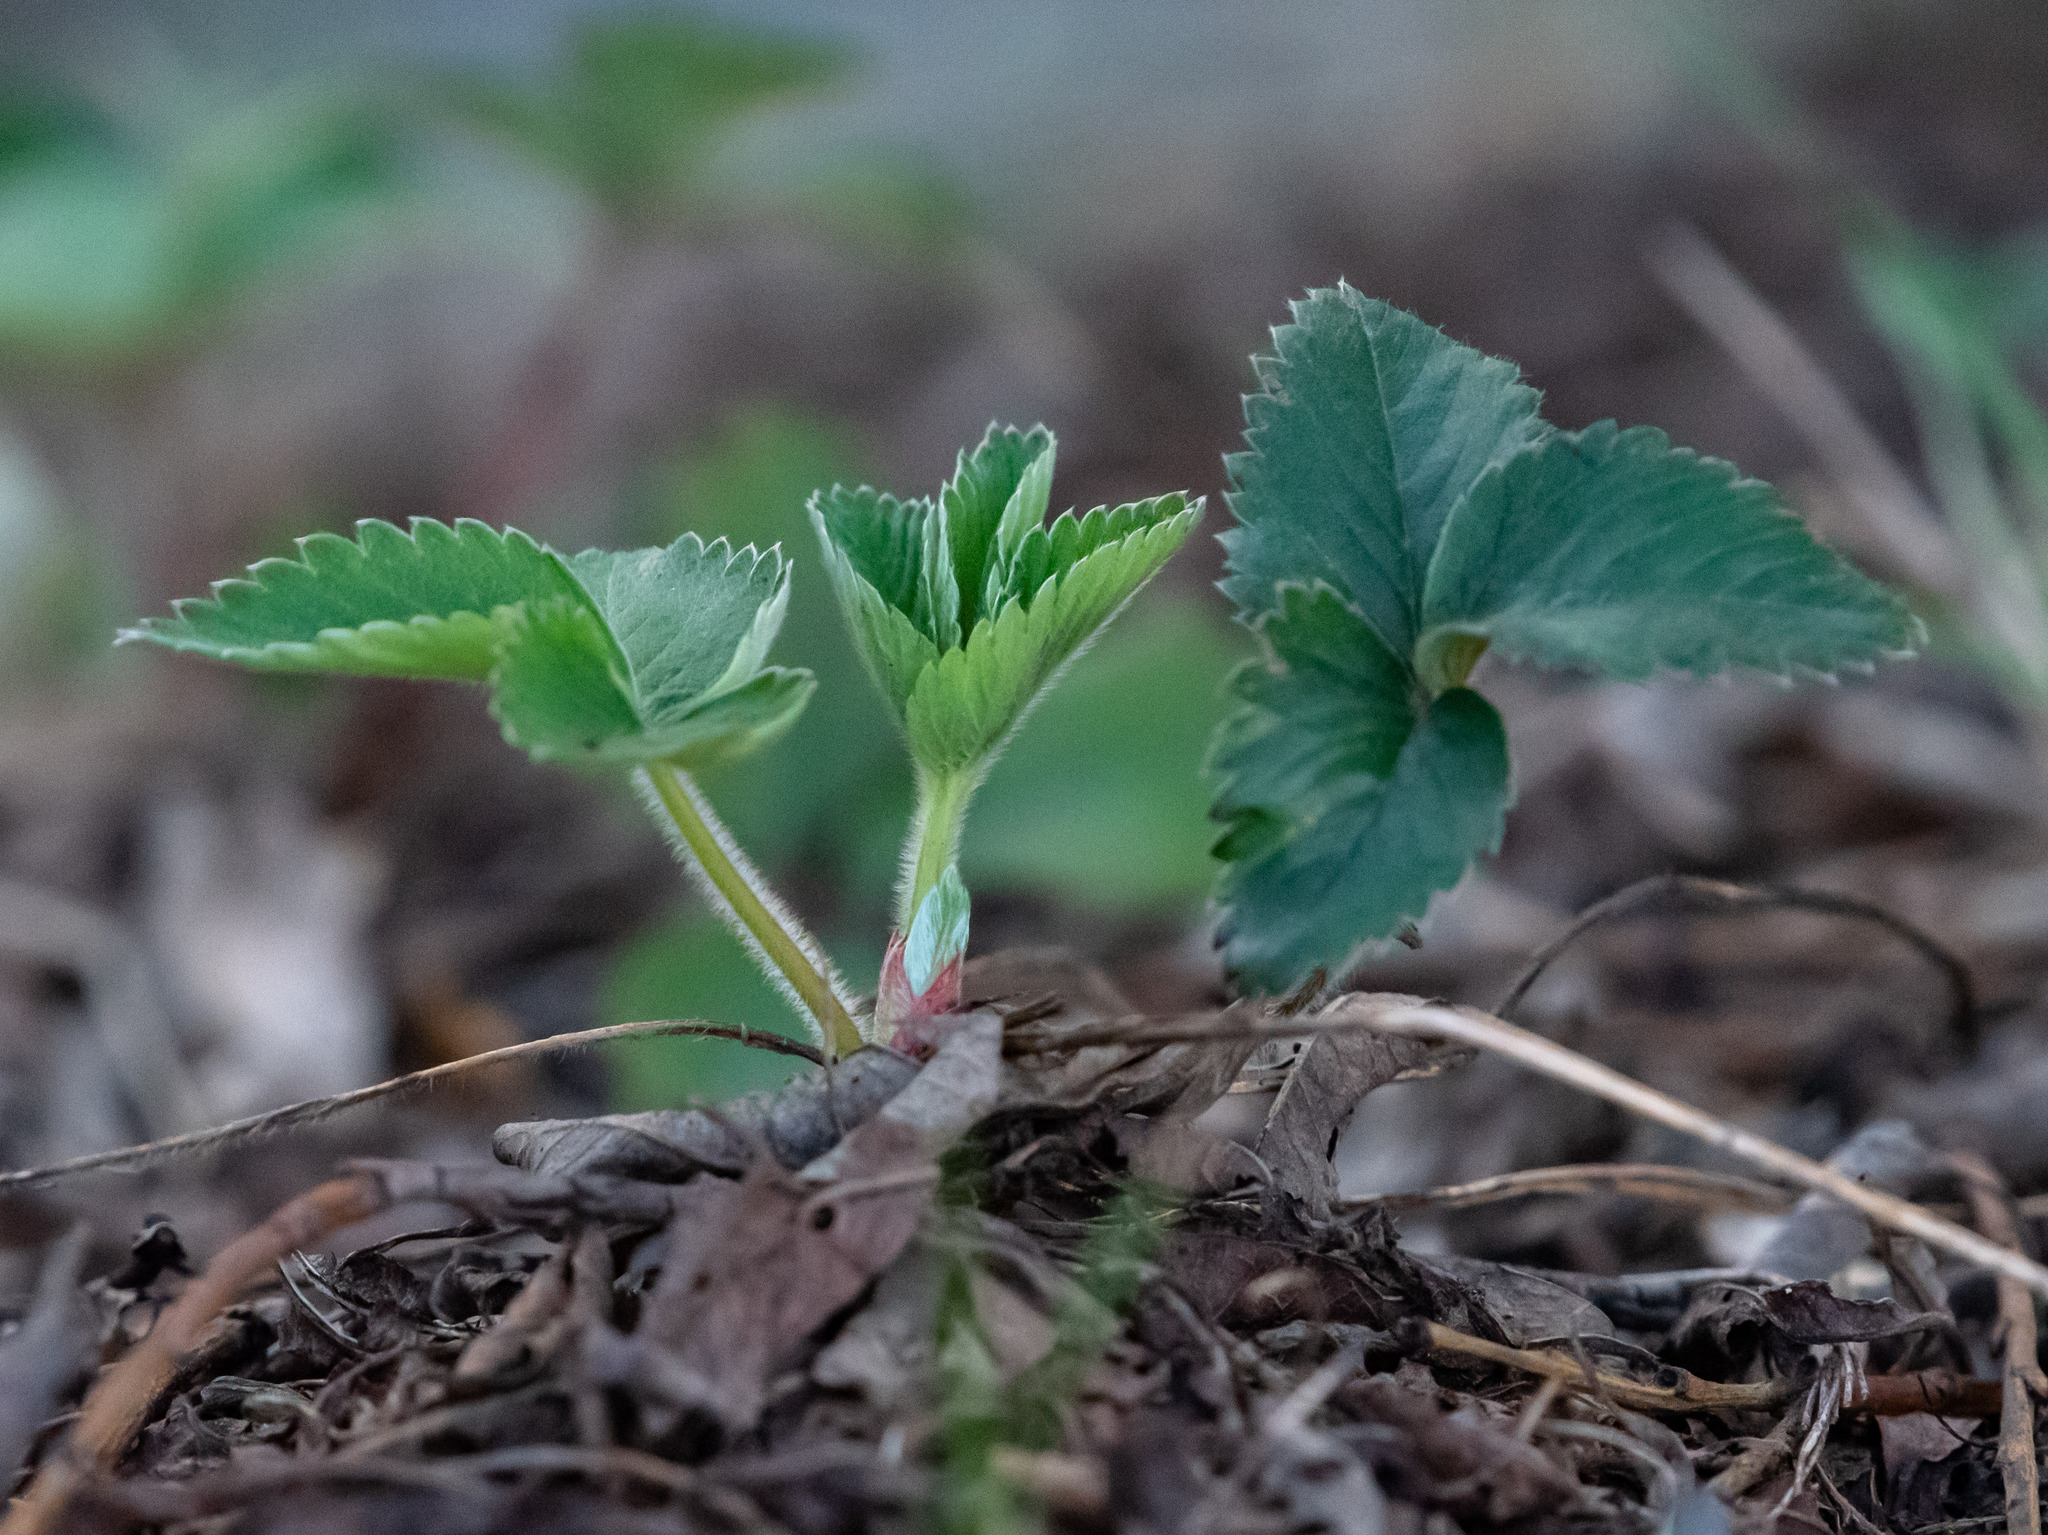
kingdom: Plantae
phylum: Tracheophyta
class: Magnoliopsida
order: Rosales
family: Rosaceae
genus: Fragaria
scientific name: Fragaria vesca
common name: Wild strawberry
